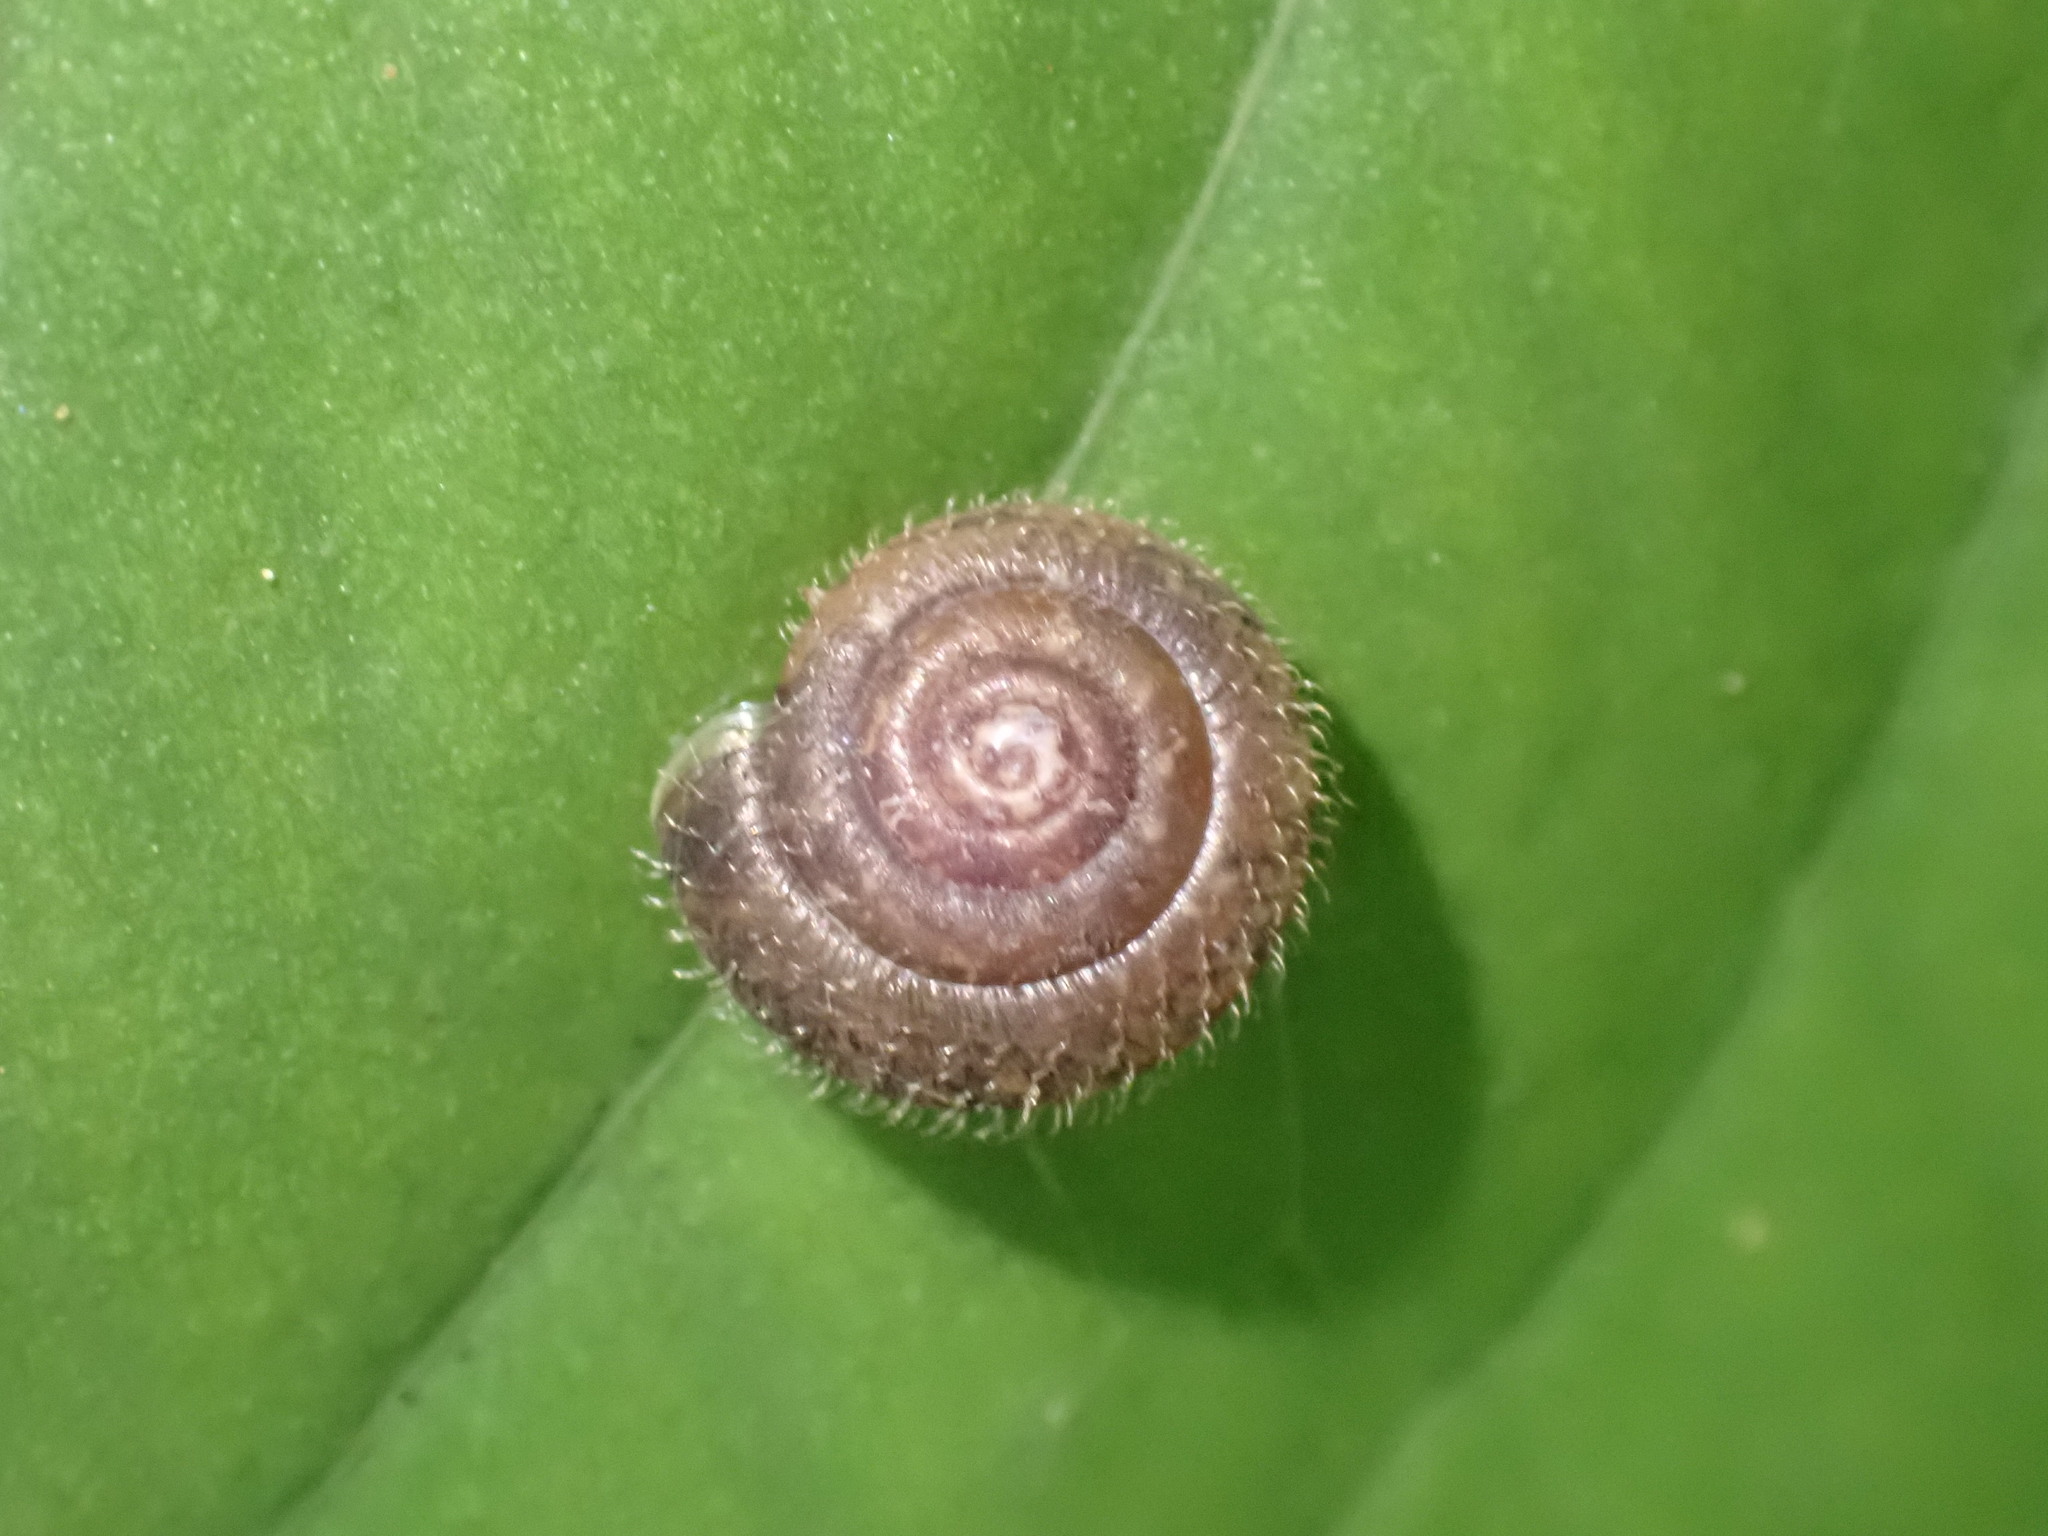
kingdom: Animalia
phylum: Mollusca
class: Gastropoda
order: Stylommatophora
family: Hygromiidae
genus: Trochulus
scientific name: Trochulus hispidus
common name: Hairy snail
